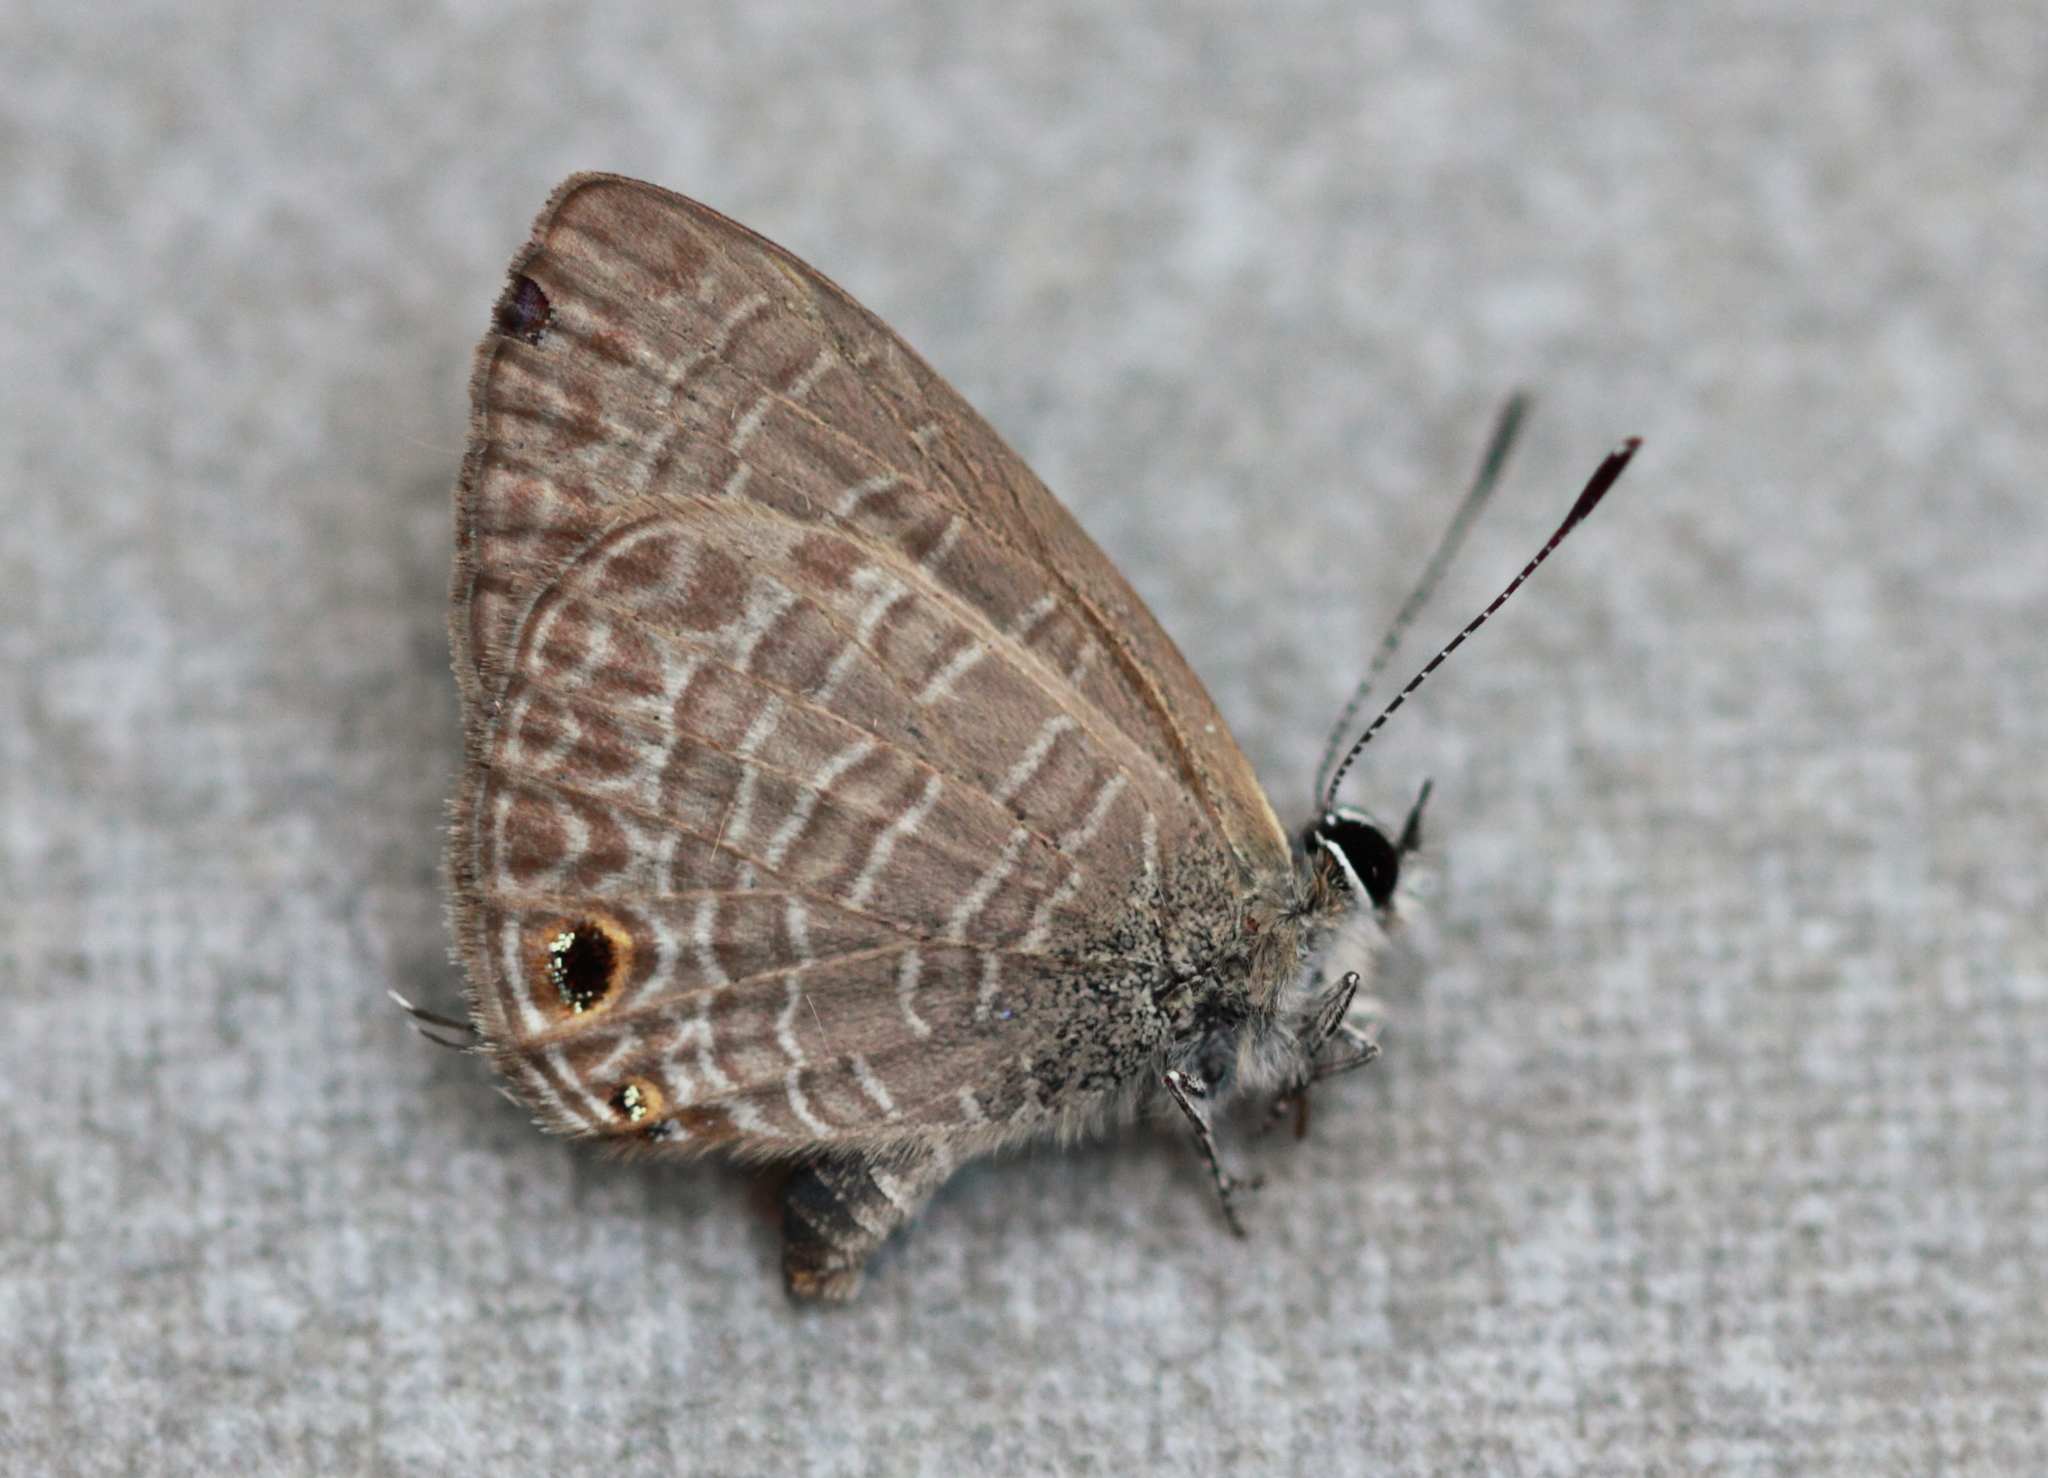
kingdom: Animalia
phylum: Arthropoda
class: Insecta
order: Lepidoptera
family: Lycaenidae
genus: Nacaduba
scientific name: Nacaduba berenice
